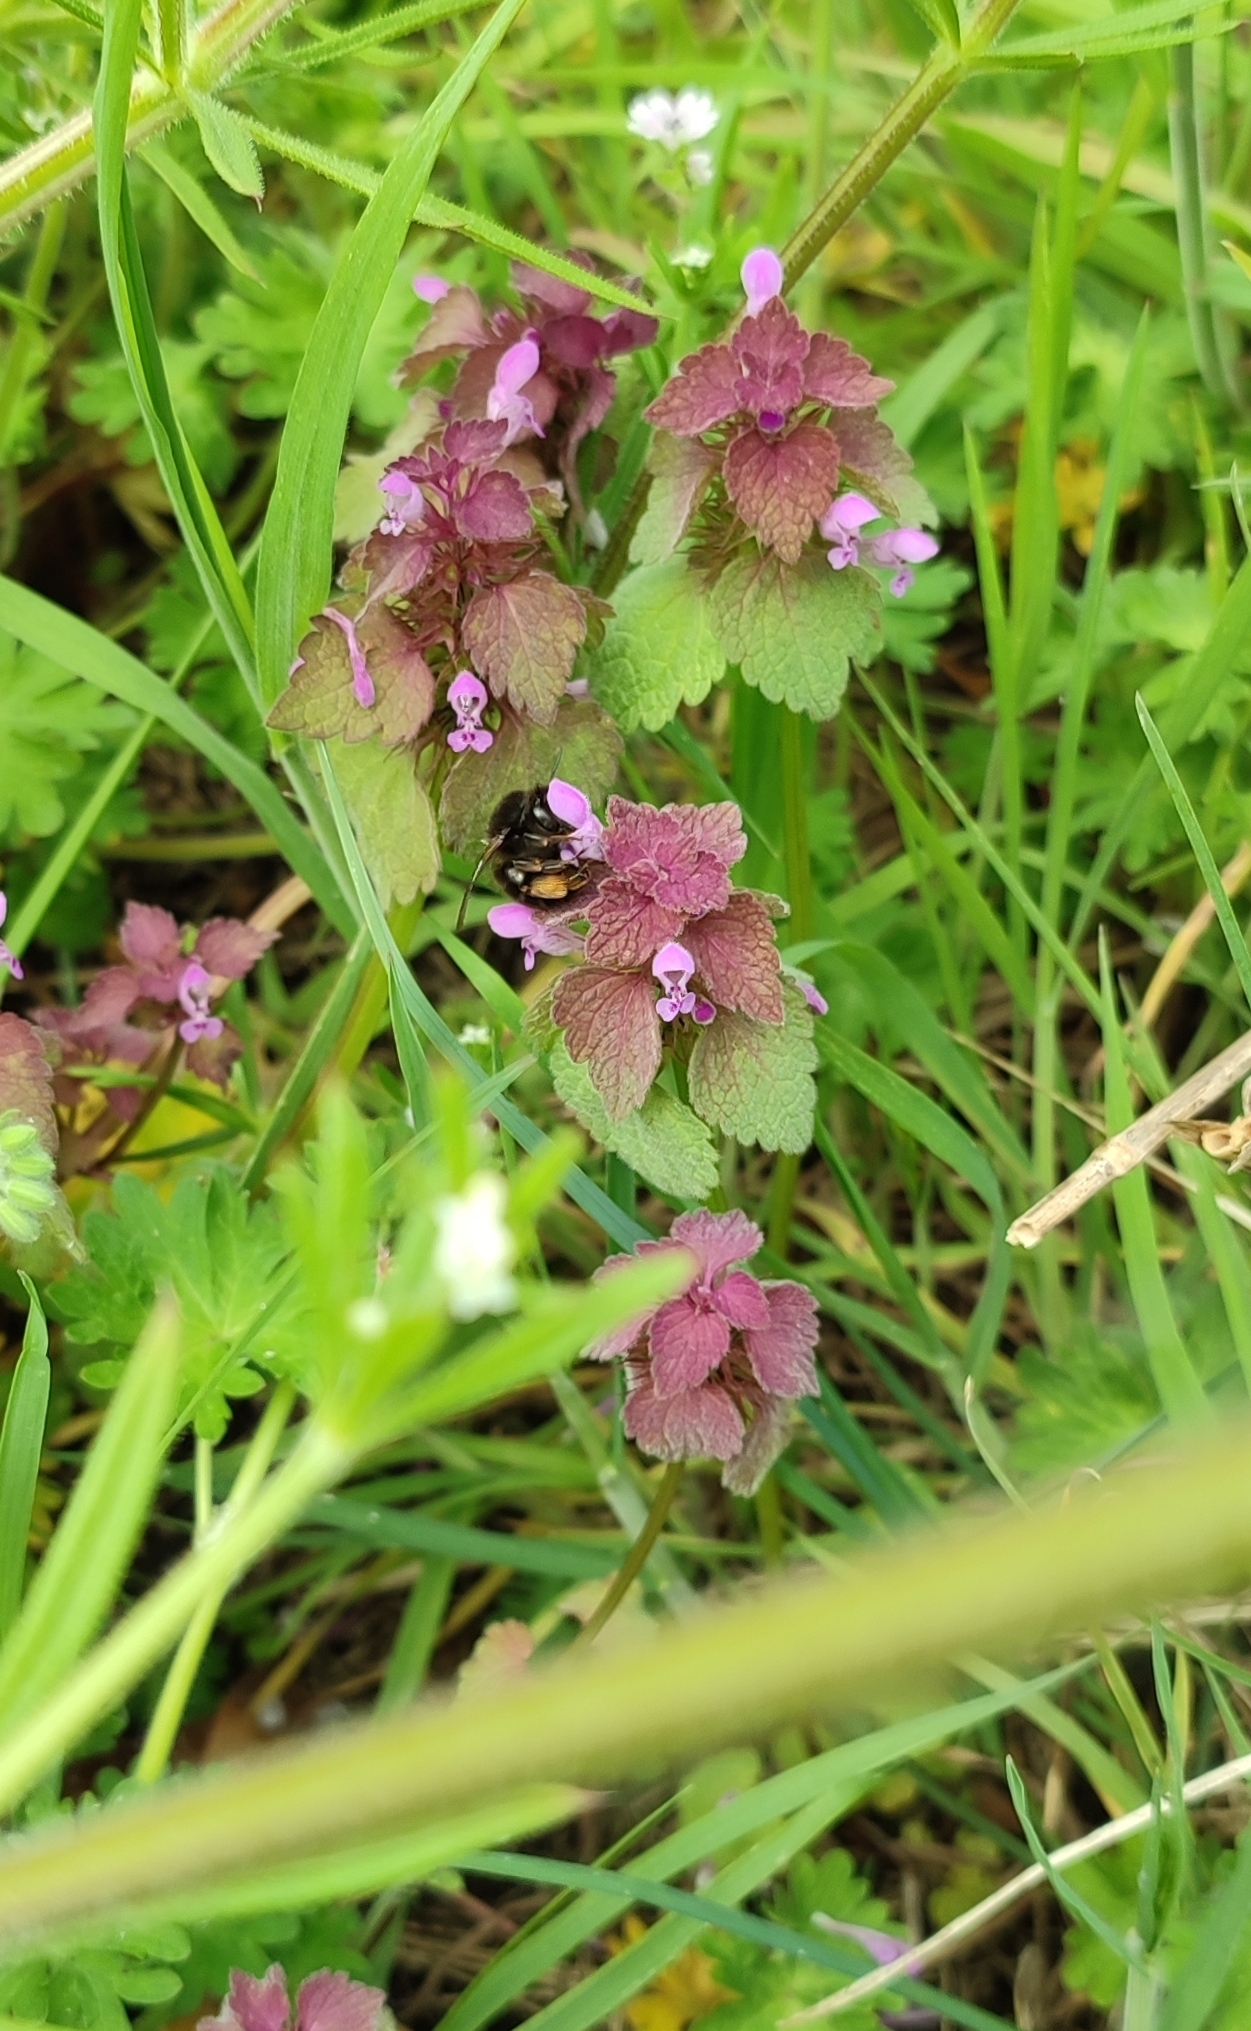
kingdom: Plantae
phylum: Tracheophyta
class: Magnoliopsida
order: Lamiales
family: Lamiaceae
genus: Lamium
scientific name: Lamium purpureum
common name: Red dead-nettle
